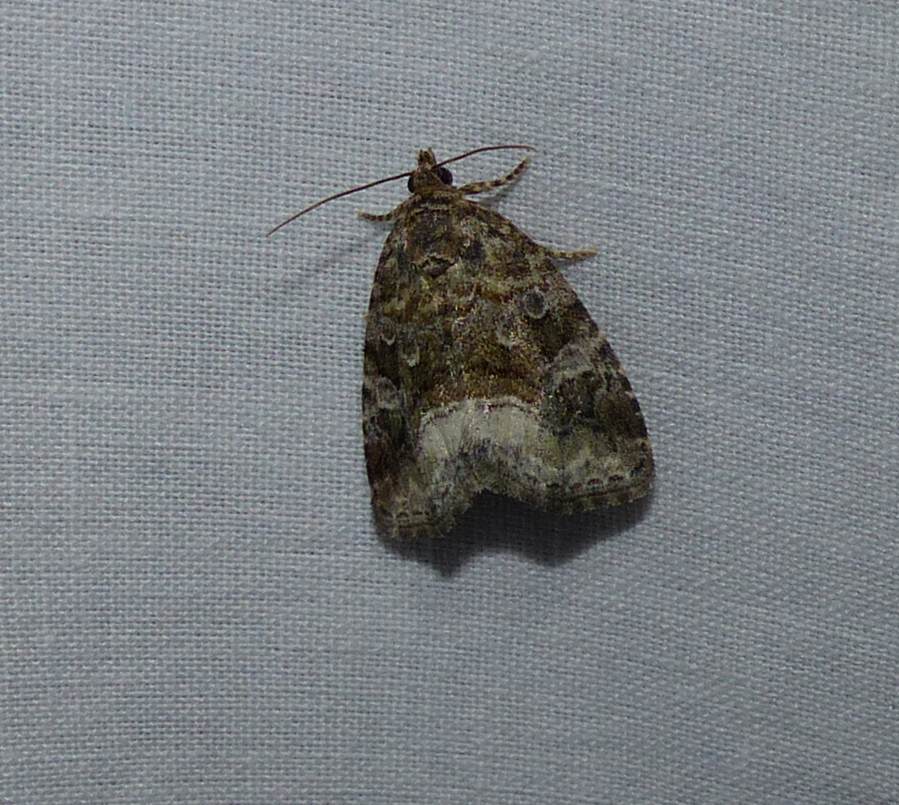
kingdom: Animalia
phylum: Arthropoda
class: Insecta
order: Lepidoptera
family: Noctuidae
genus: Protodeltote
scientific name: Protodeltote muscosula
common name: Large mossy glyph
